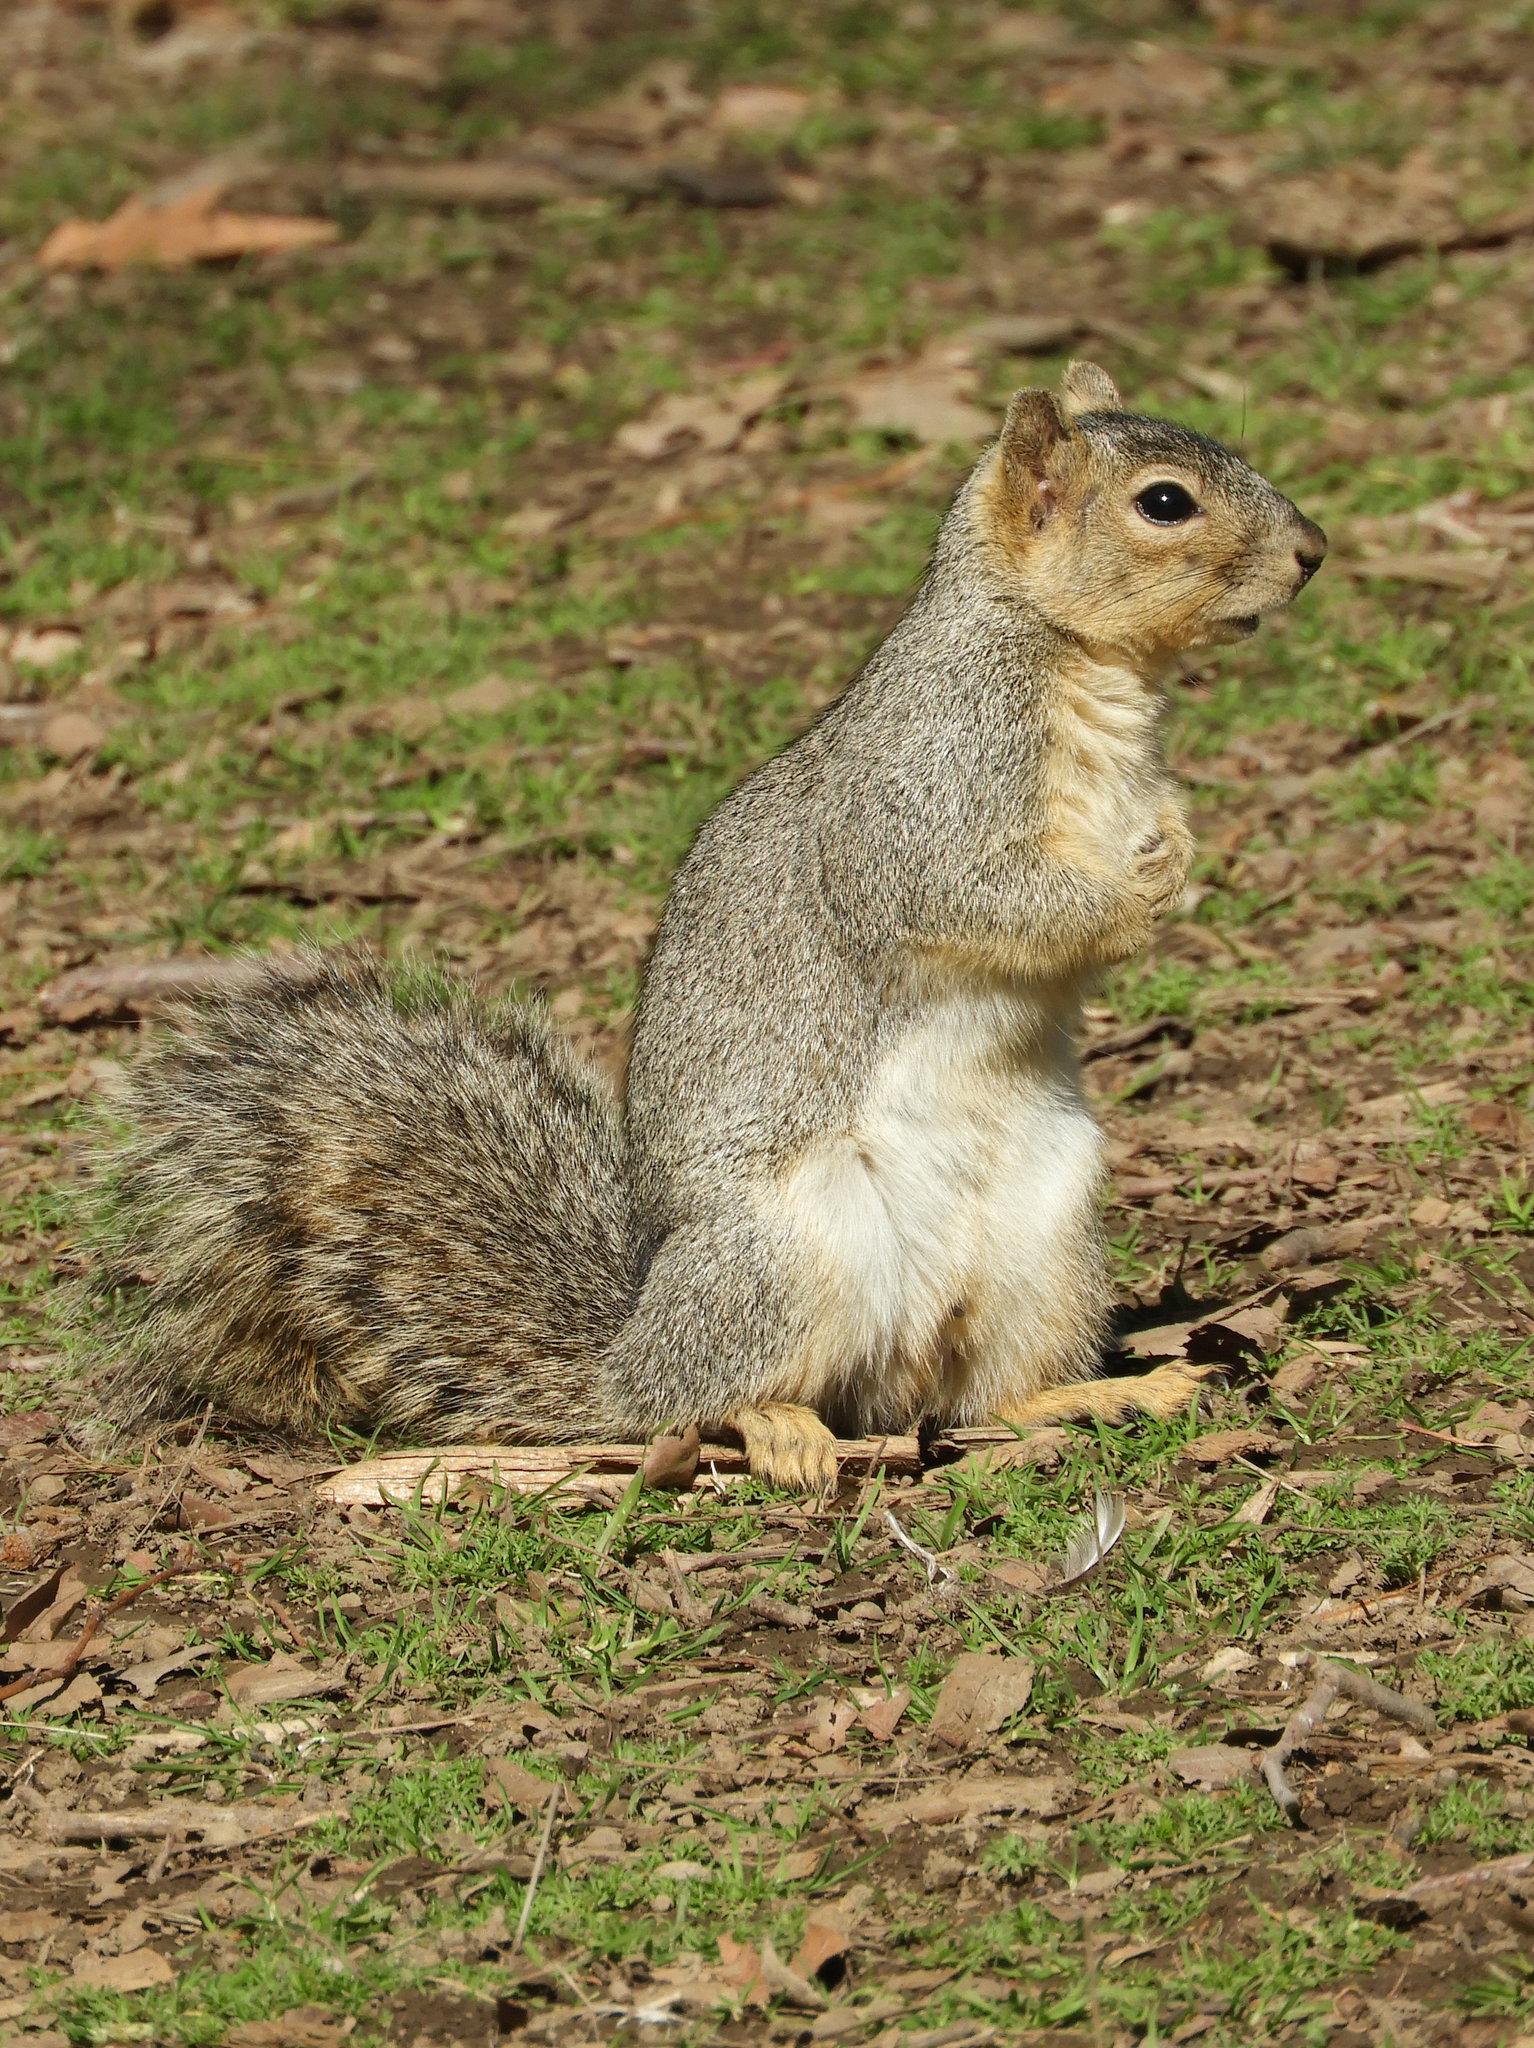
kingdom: Animalia
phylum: Chordata
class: Mammalia
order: Rodentia
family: Sciuridae
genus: Sciurus
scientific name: Sciurus niger
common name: Fox squirrel
